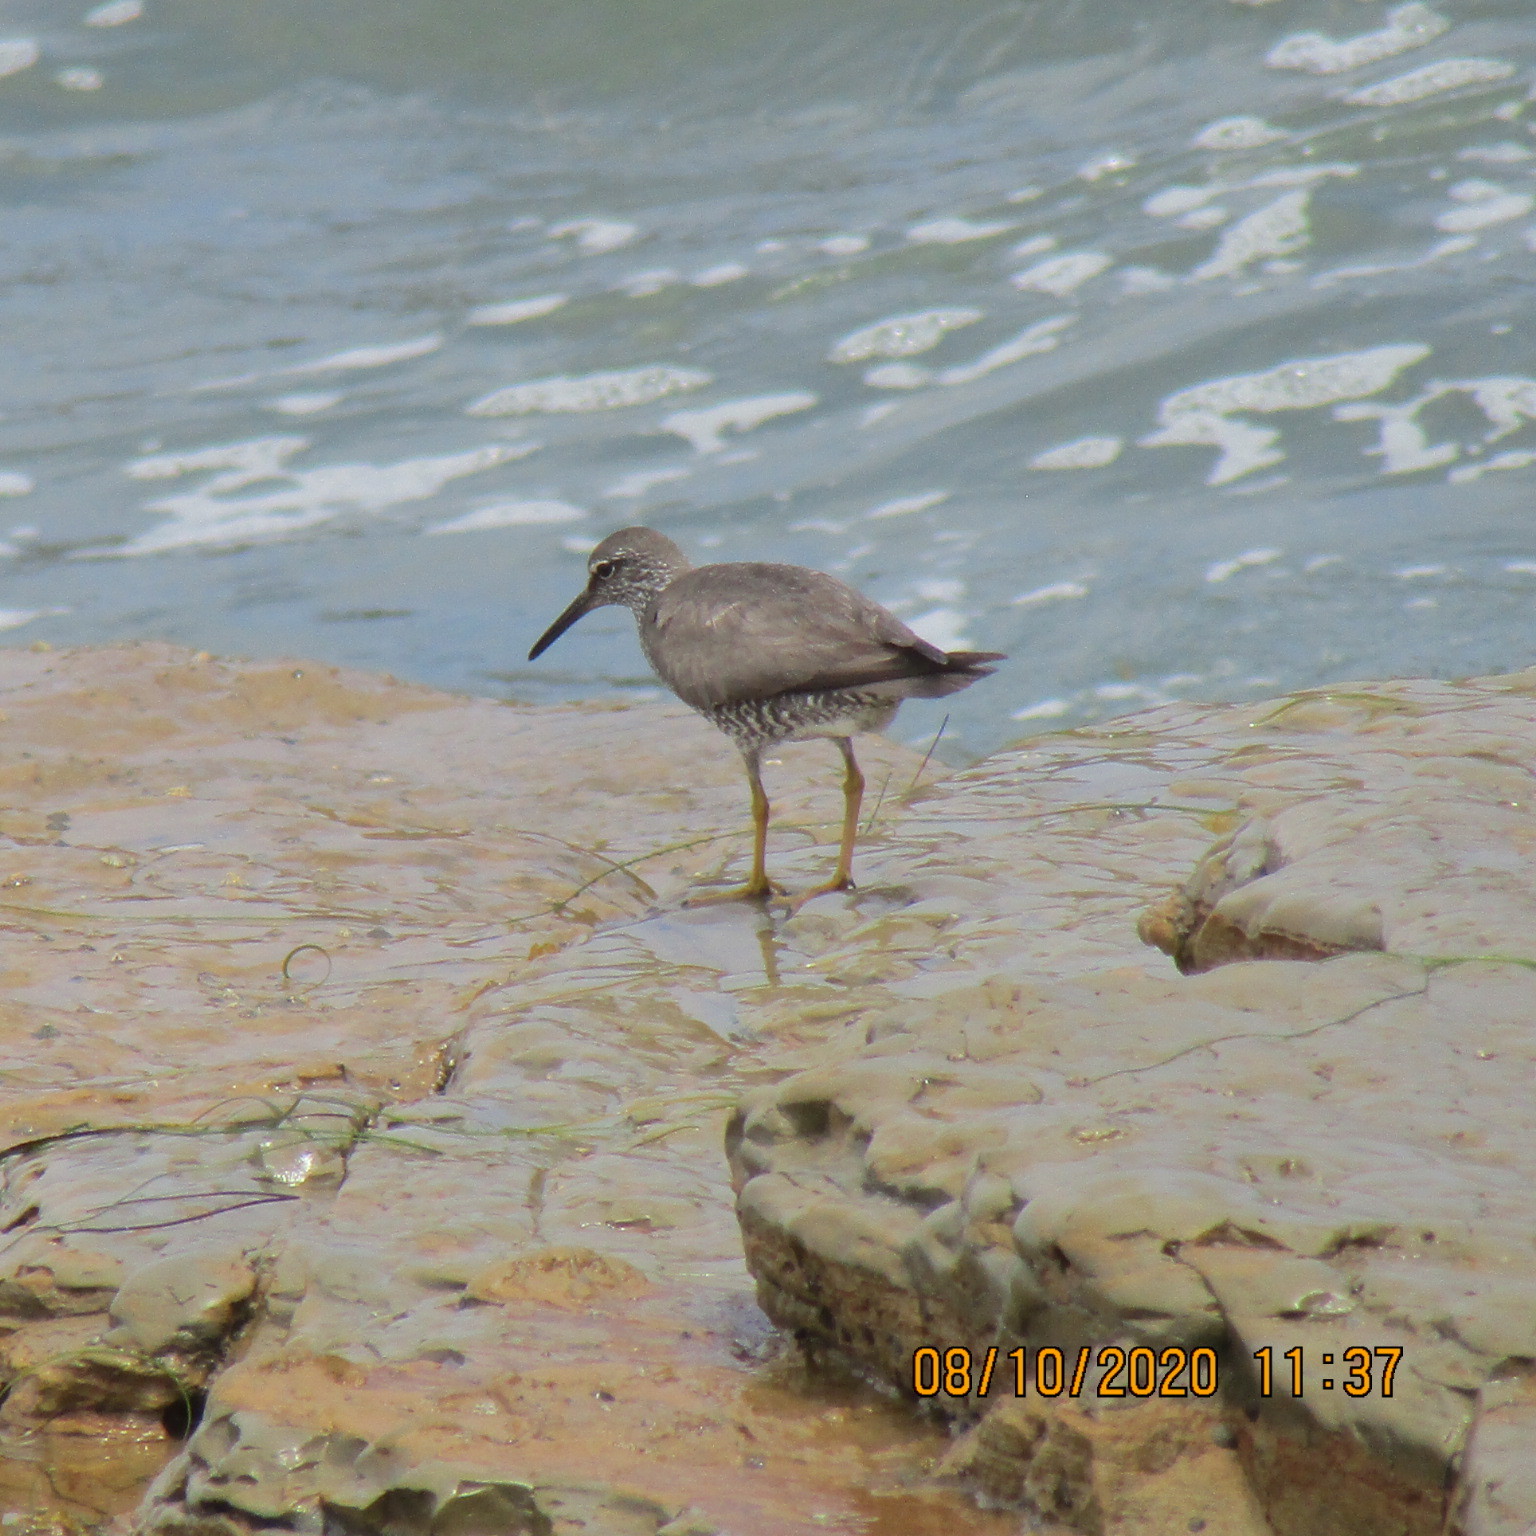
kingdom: Animalia
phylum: Chordata
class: Aves
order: Charadriiformes
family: Scolopacidae
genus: Tringa
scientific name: Tringa incana
